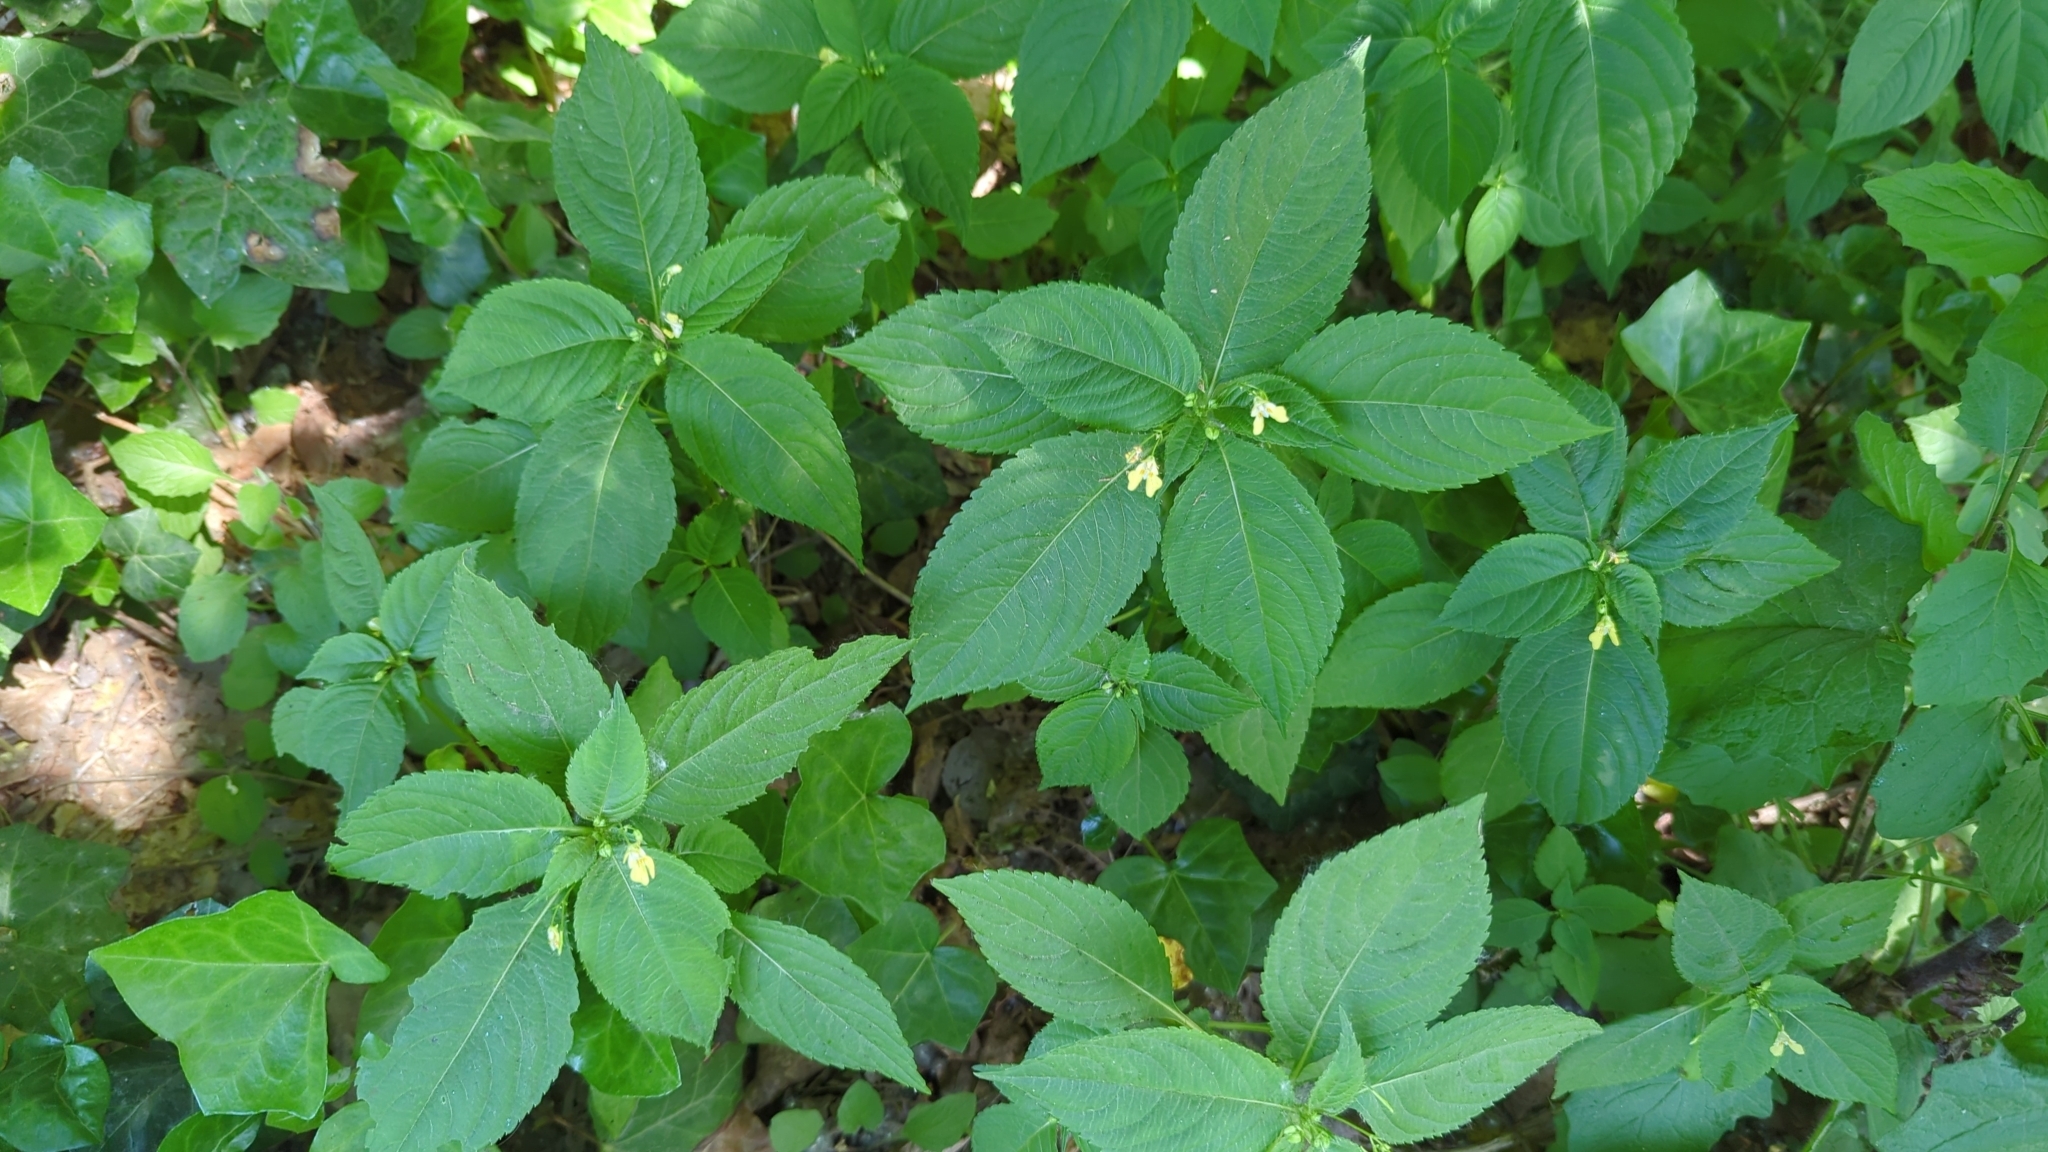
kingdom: Plantae
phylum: Tracheophyta
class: Magnoliopsida
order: Ericales
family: Balsaminaceae
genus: Impatiens
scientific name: Impatiens parviflora
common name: Small balsam
